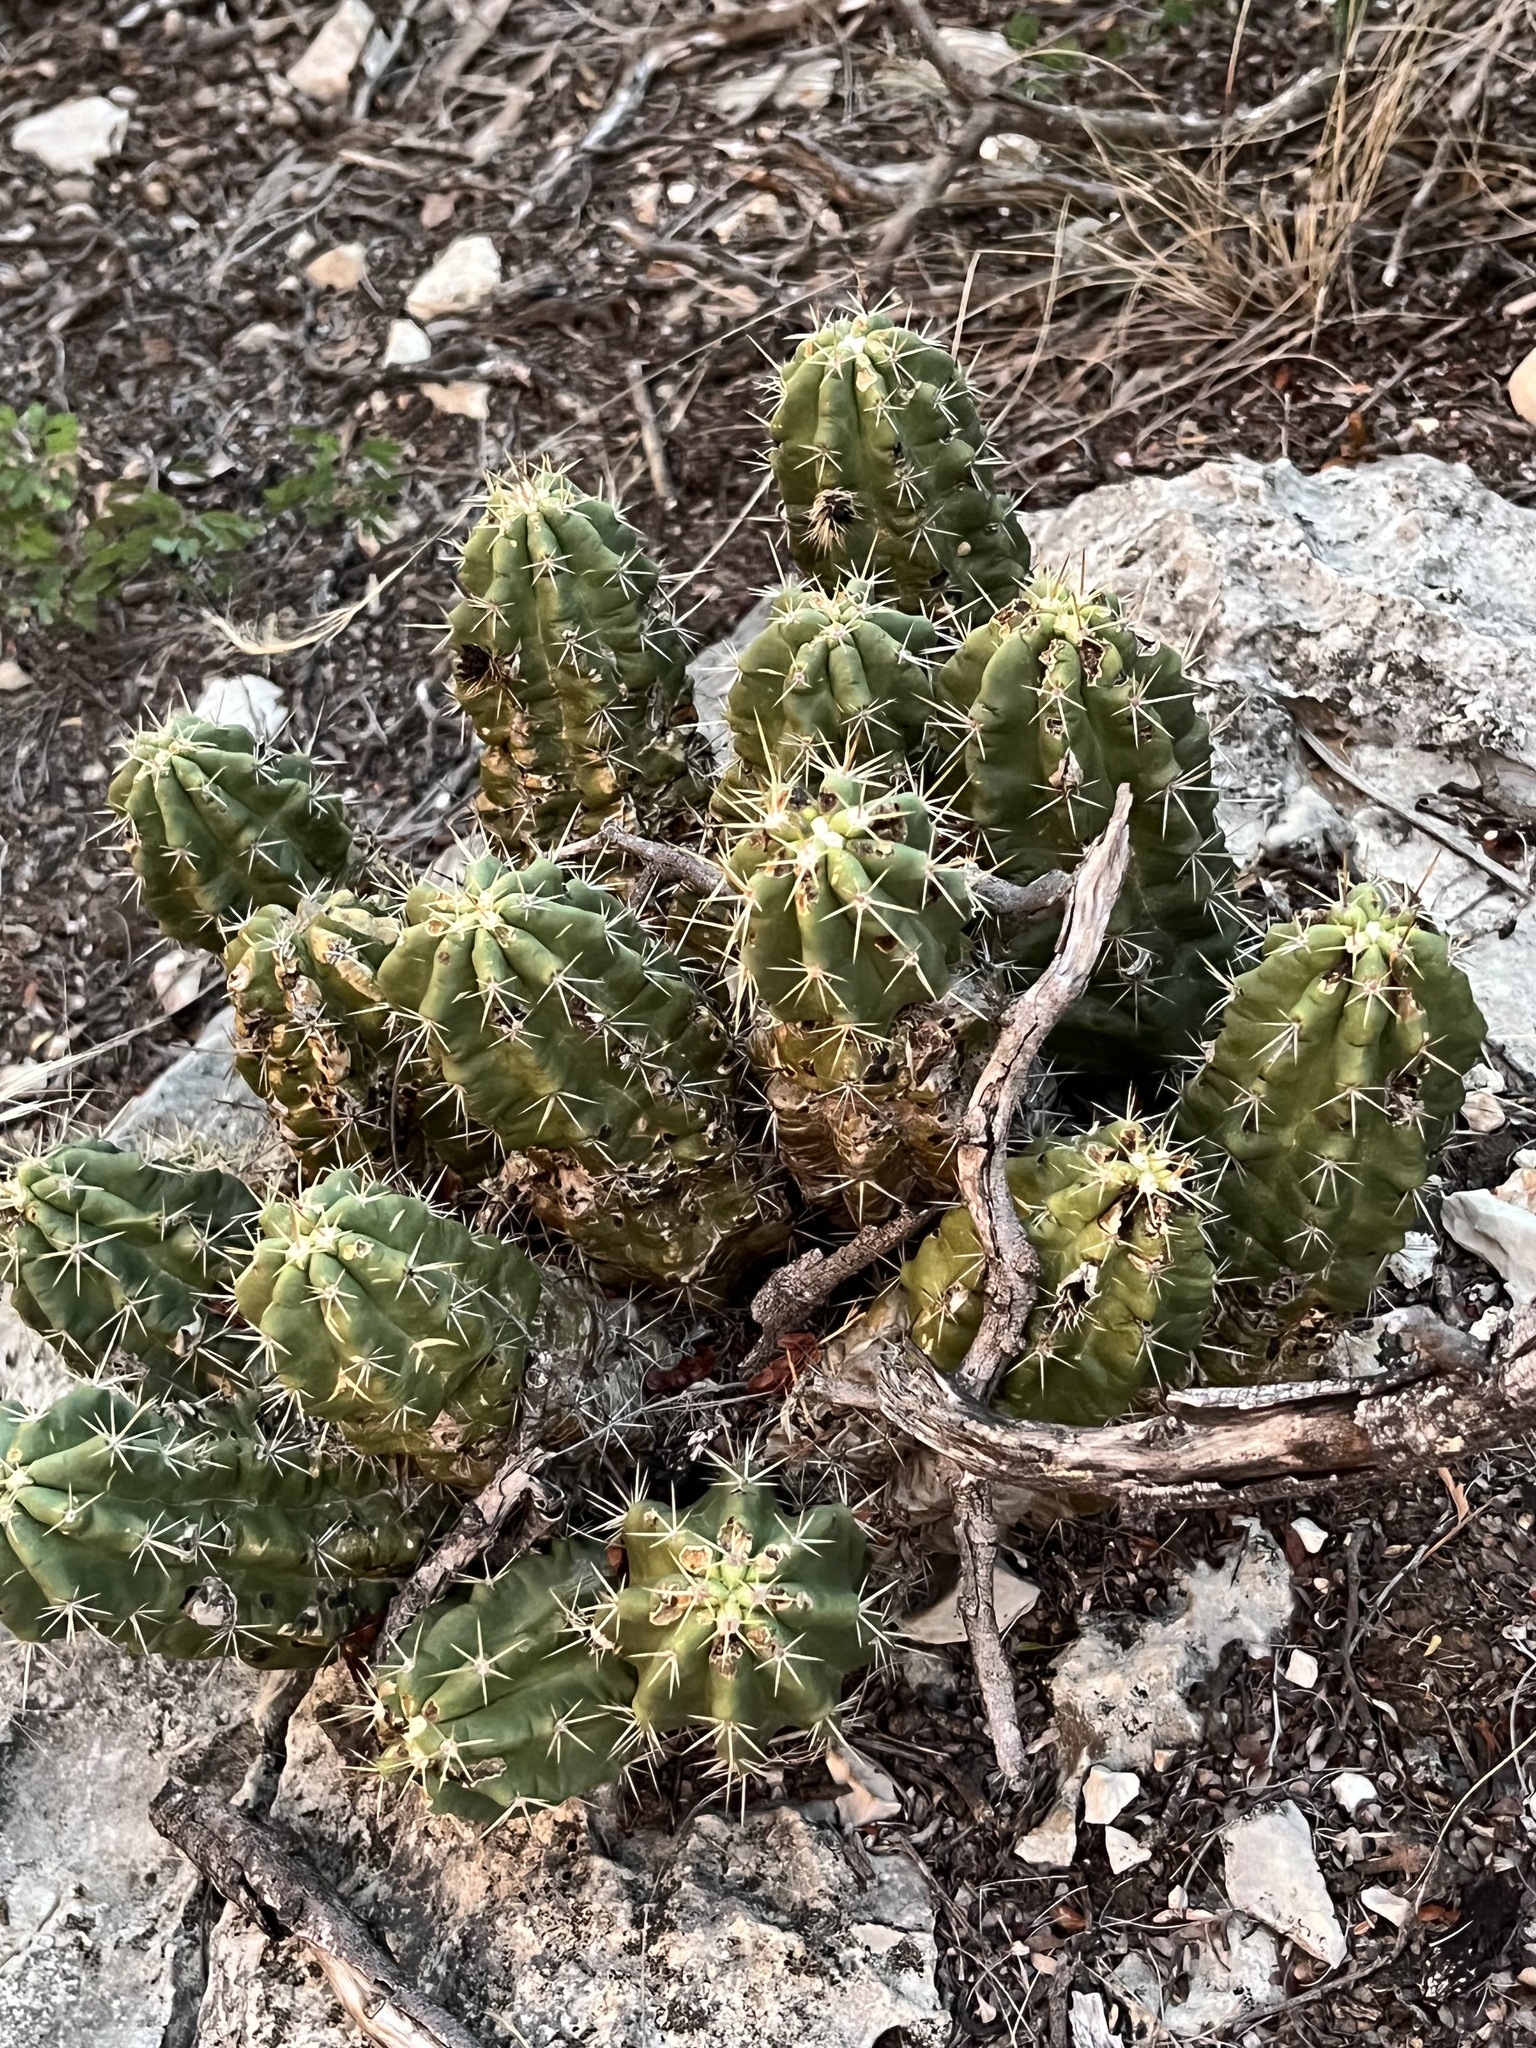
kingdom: Plantae
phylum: Tracheophyta
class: Magnoliopsida
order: Caryophyllales
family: Cactaceae
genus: Echinocereus
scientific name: Echinocereus enneacanthus
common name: Pitaya
